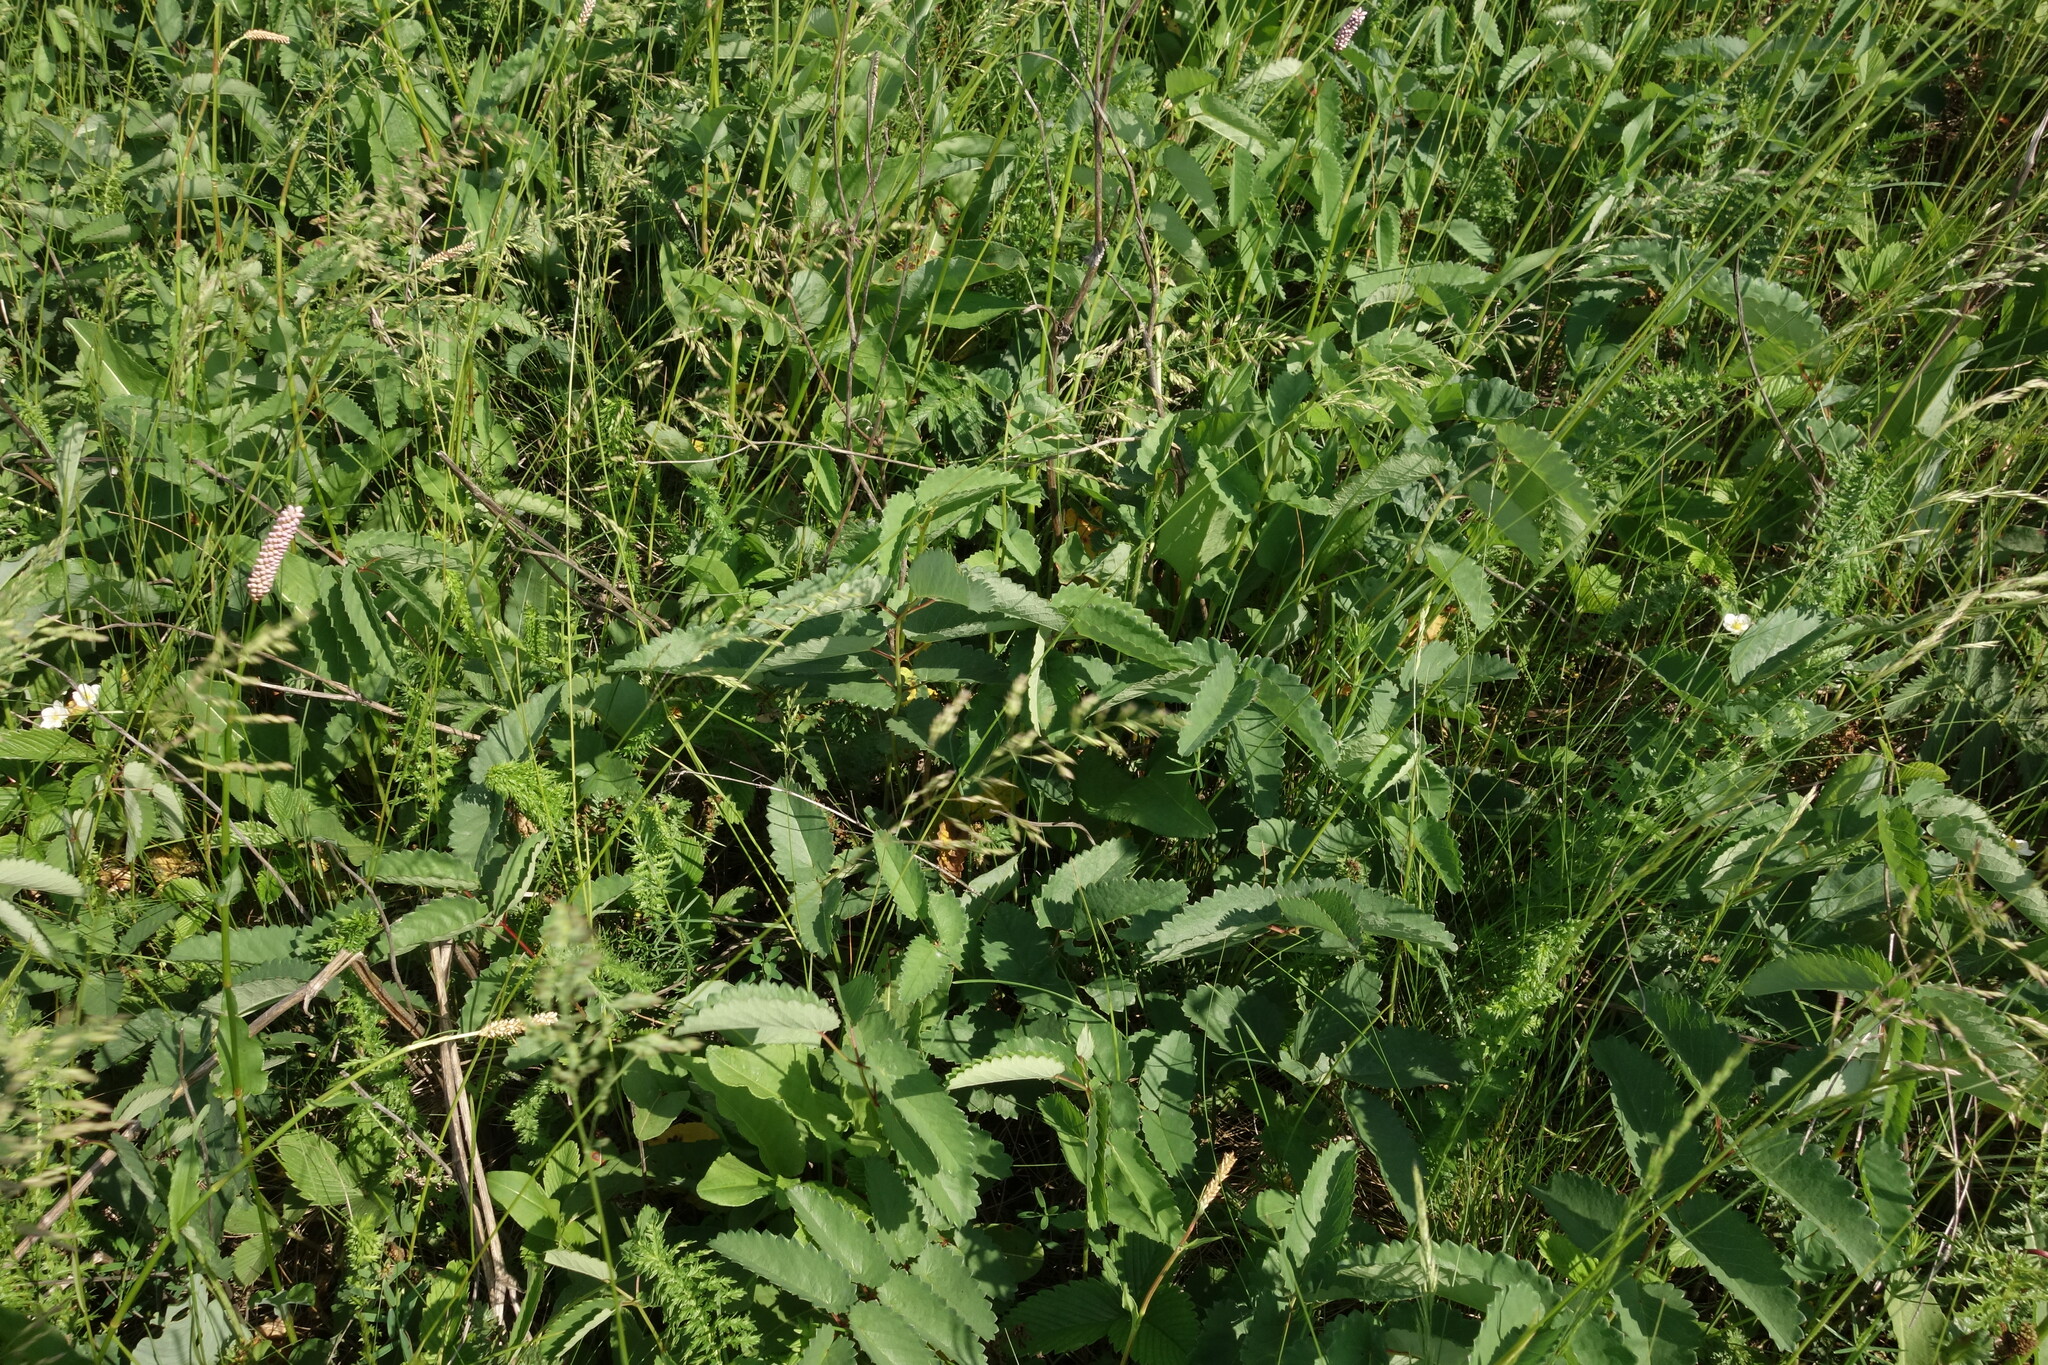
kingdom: Plantae
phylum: Tracheophyta
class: Magnoliopsida
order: Rosales
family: Rosaceae
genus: Sanguisorba
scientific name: Sanguisorba officinalis
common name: Great burnet
